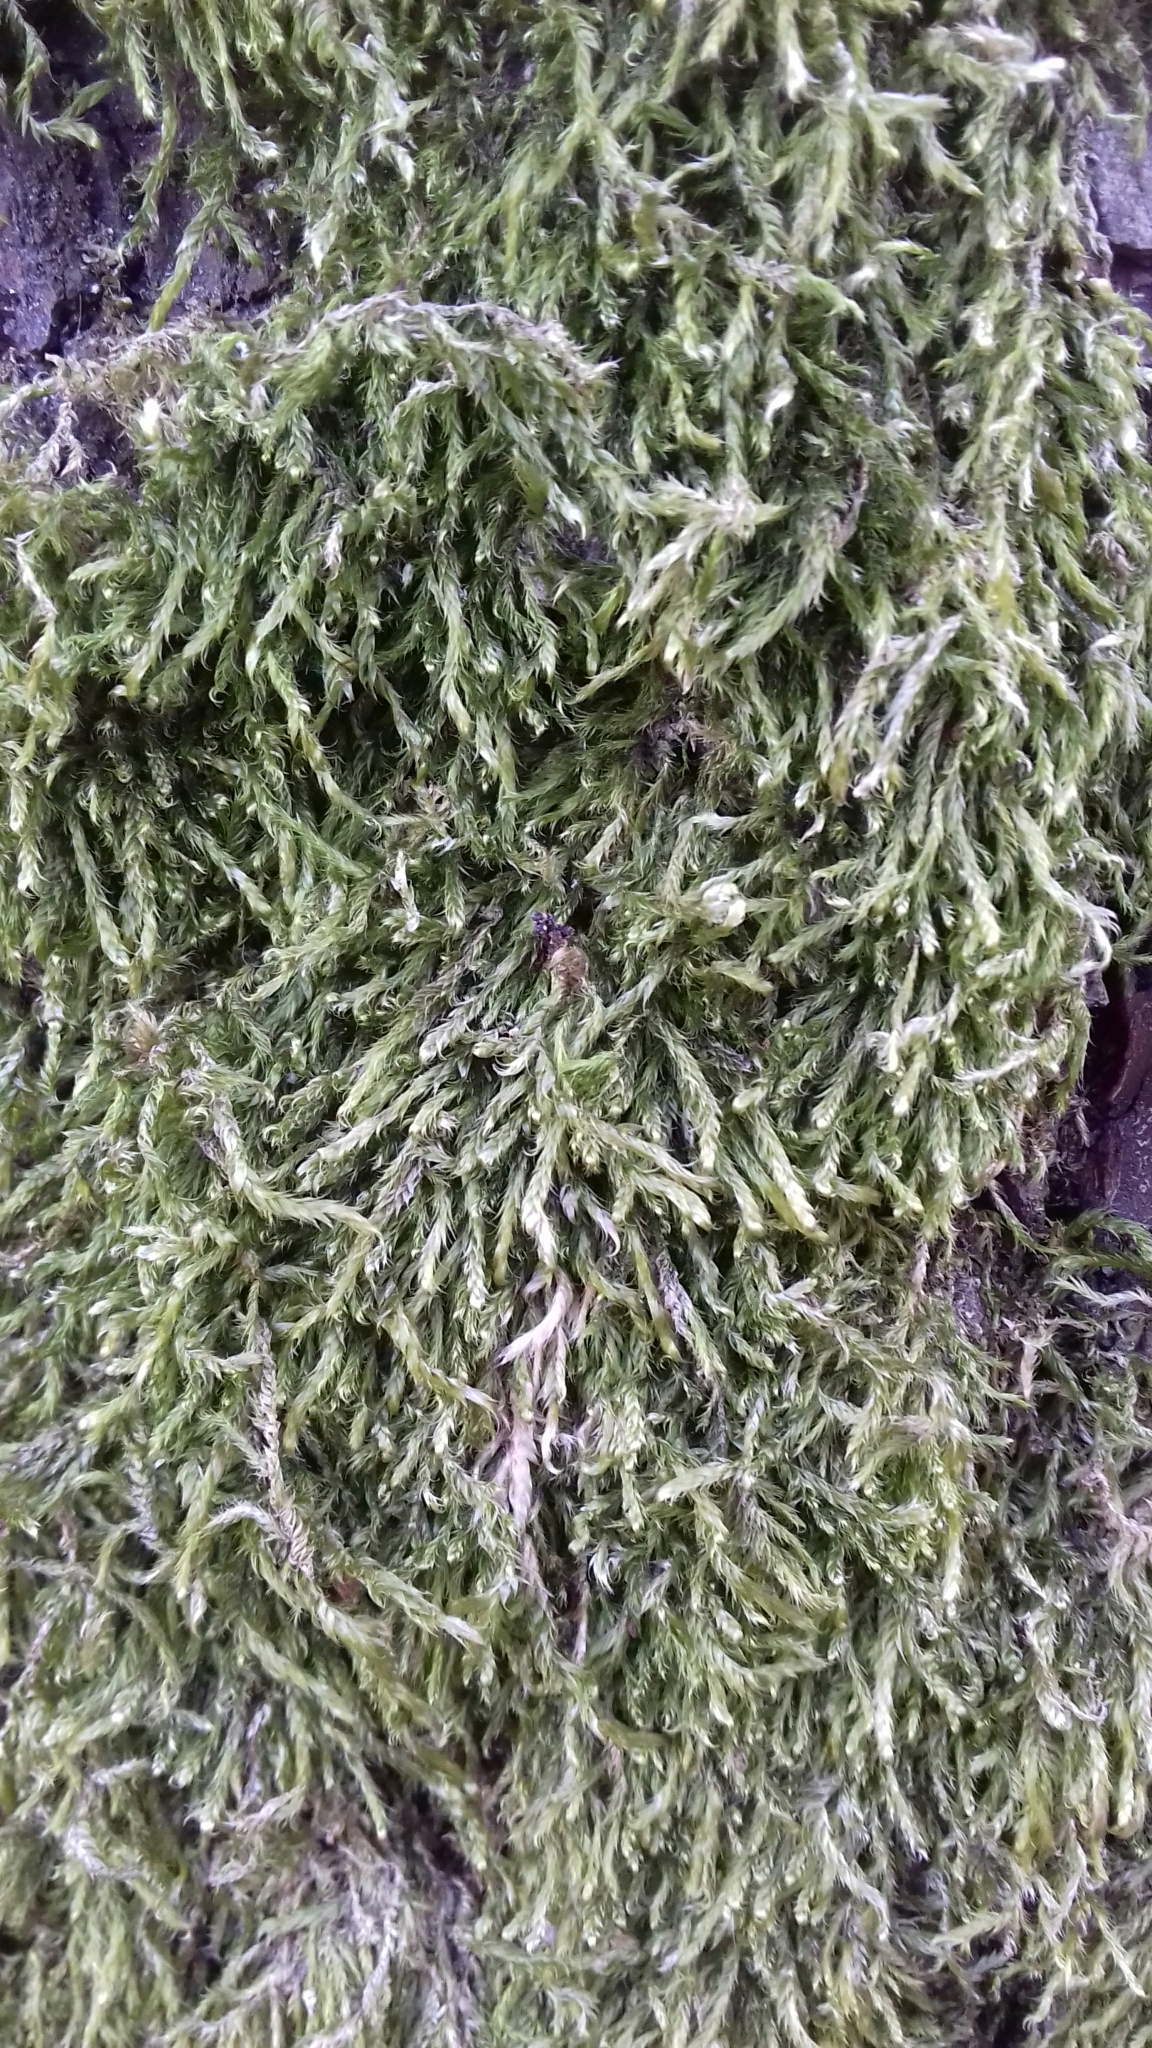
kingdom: Plantae
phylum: Bryophyta
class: Bryopsida
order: Hypnales
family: Hypnaceae
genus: Hypnum
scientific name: Hypnum cupressiforme
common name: Cypress-leaved plait-moss
